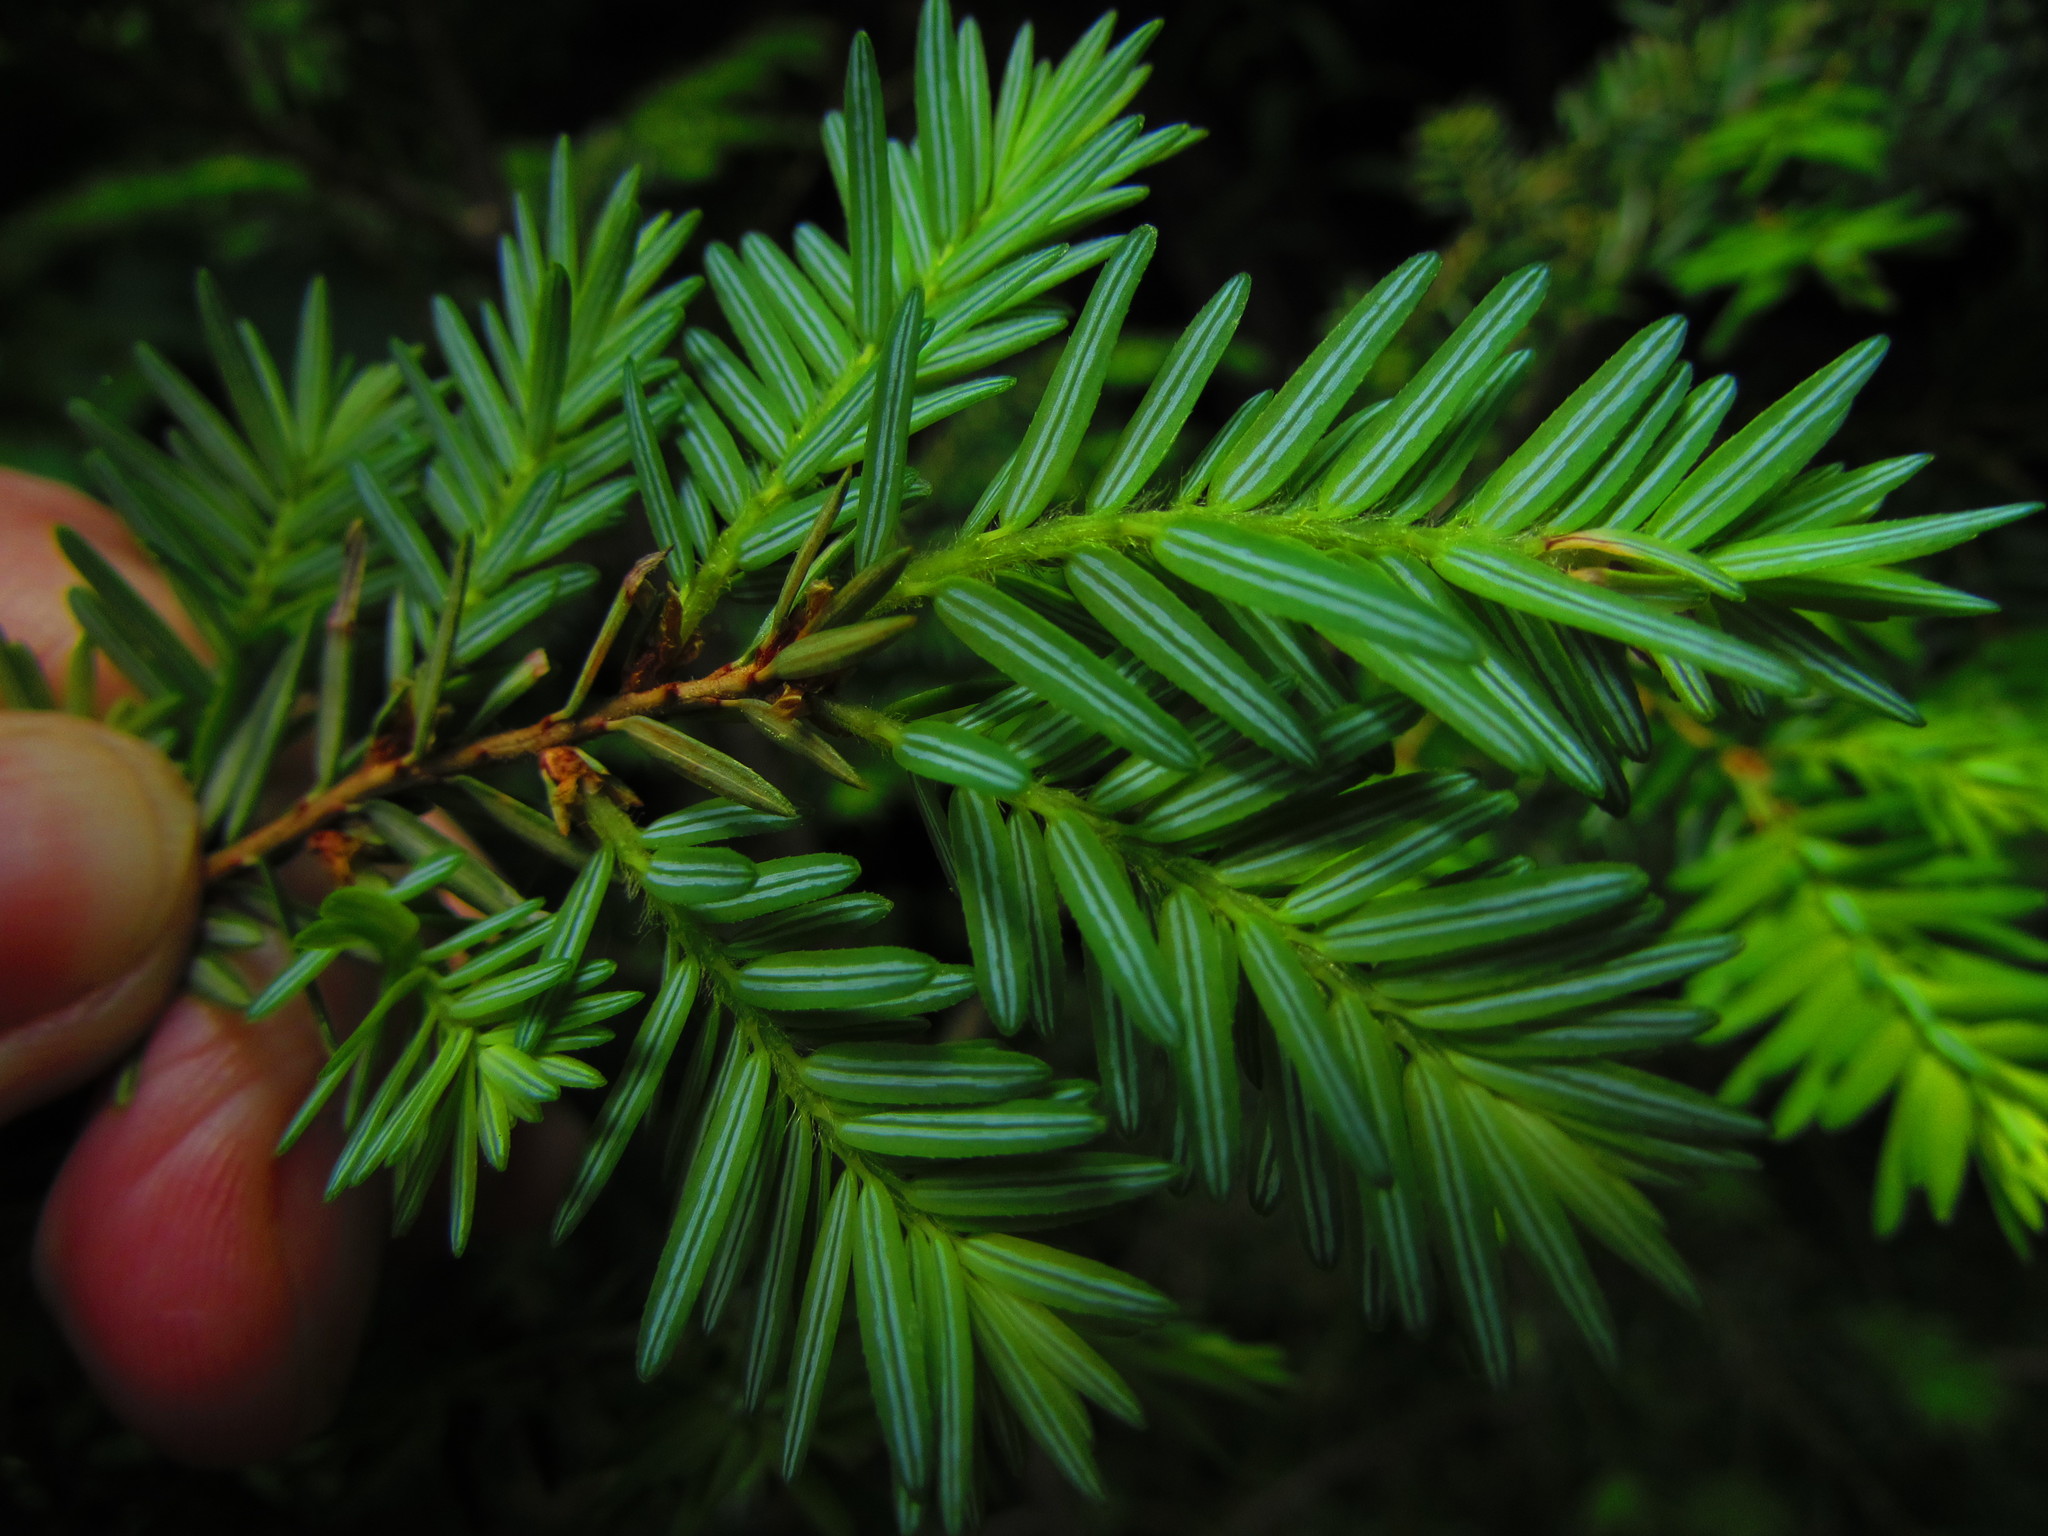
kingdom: Plantae
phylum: Tracheophyta
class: Pinopsida
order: Pinales
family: Pinaceae
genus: Tsuga
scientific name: Tsuga canadensis
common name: Eastern hemlock
